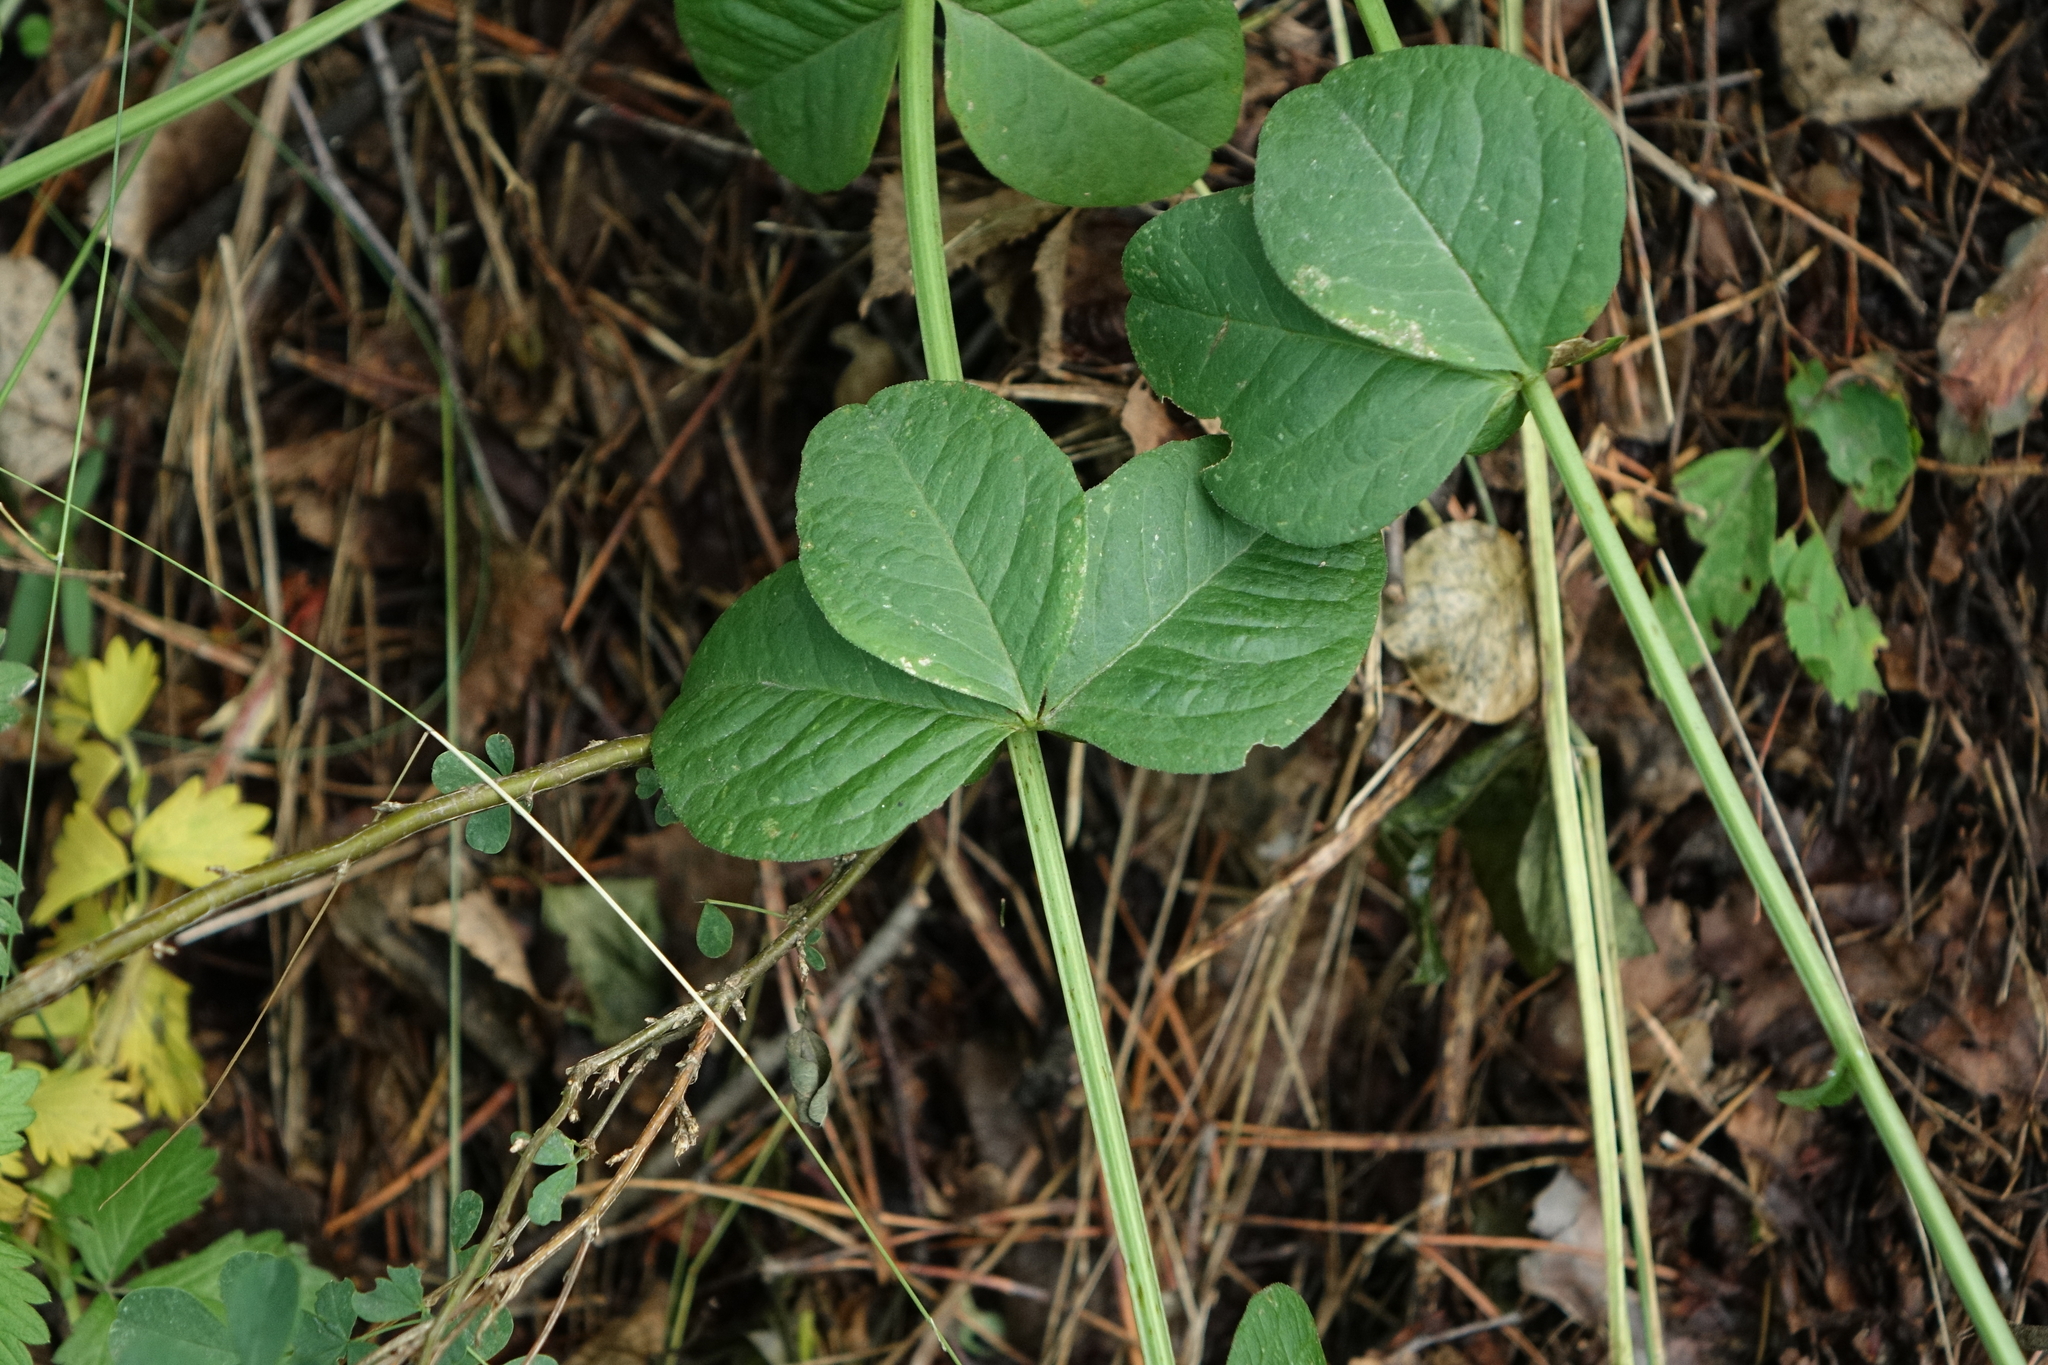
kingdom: Plantae
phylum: Tracheophyta
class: Magnoliopsida
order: Fabales
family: Fabaceae
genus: Vicia
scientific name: Vicia unijuga
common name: Two-leaf vetch
